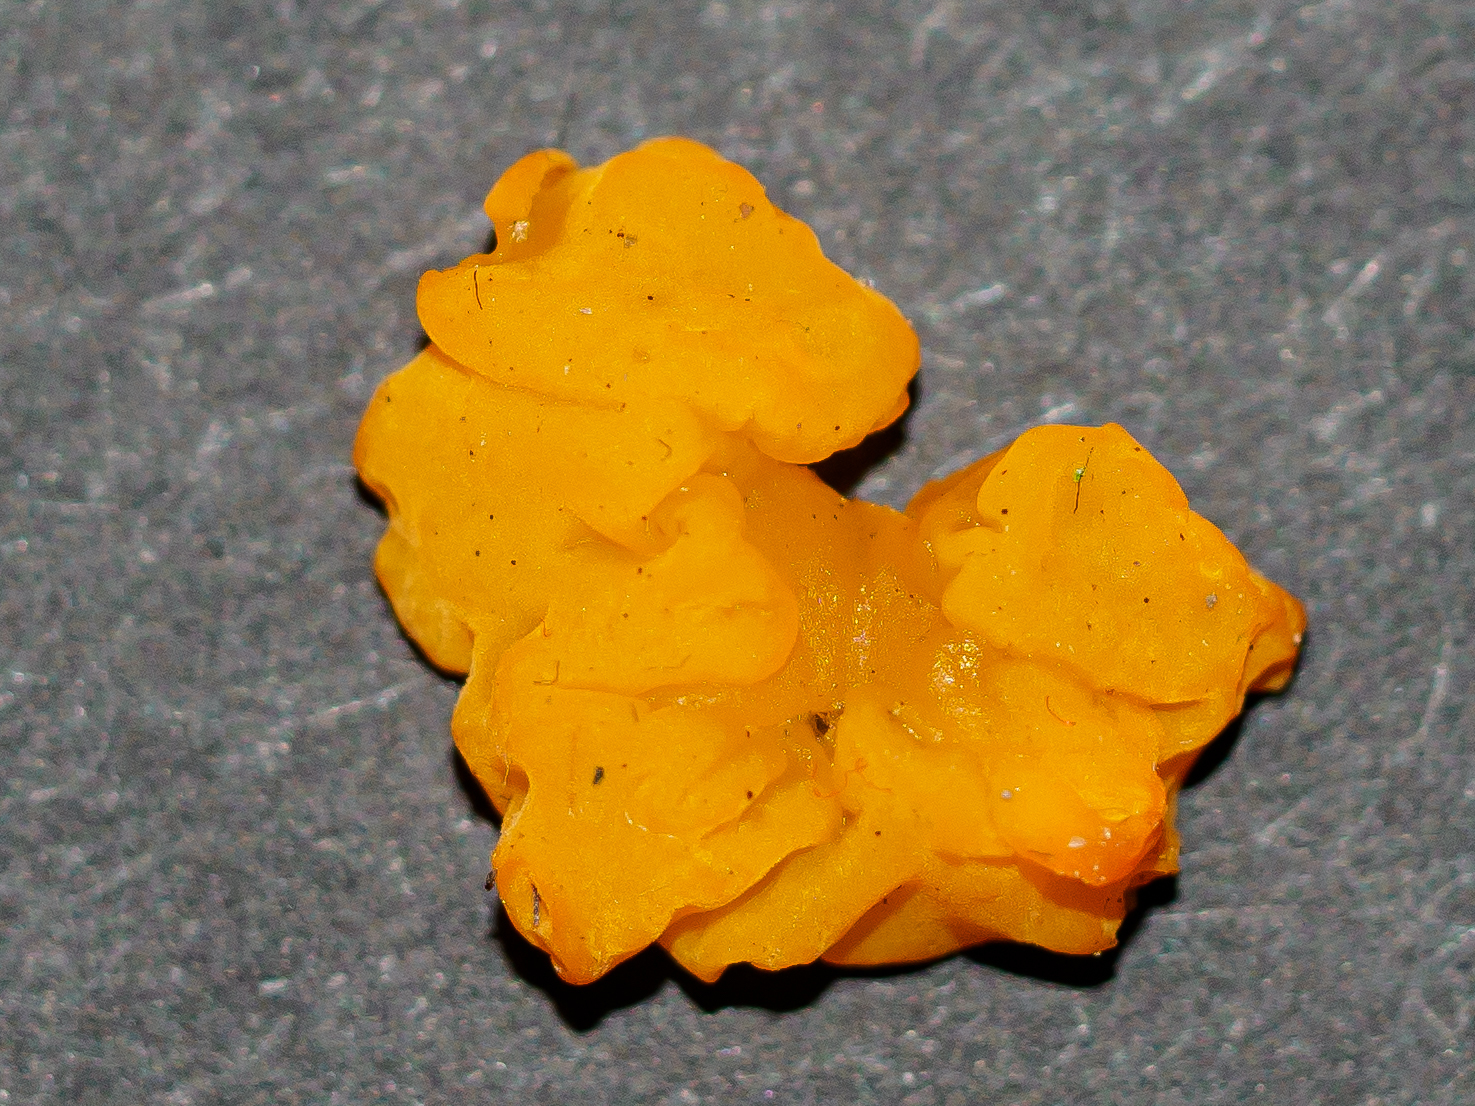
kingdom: Fungi
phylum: Basidiomycota
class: Dacrymycetes
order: Dacrymycetales
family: Dacrymycetaceae
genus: Dacrymyces
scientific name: Dacrymyces chrysospermus
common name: Orange jelly spot
